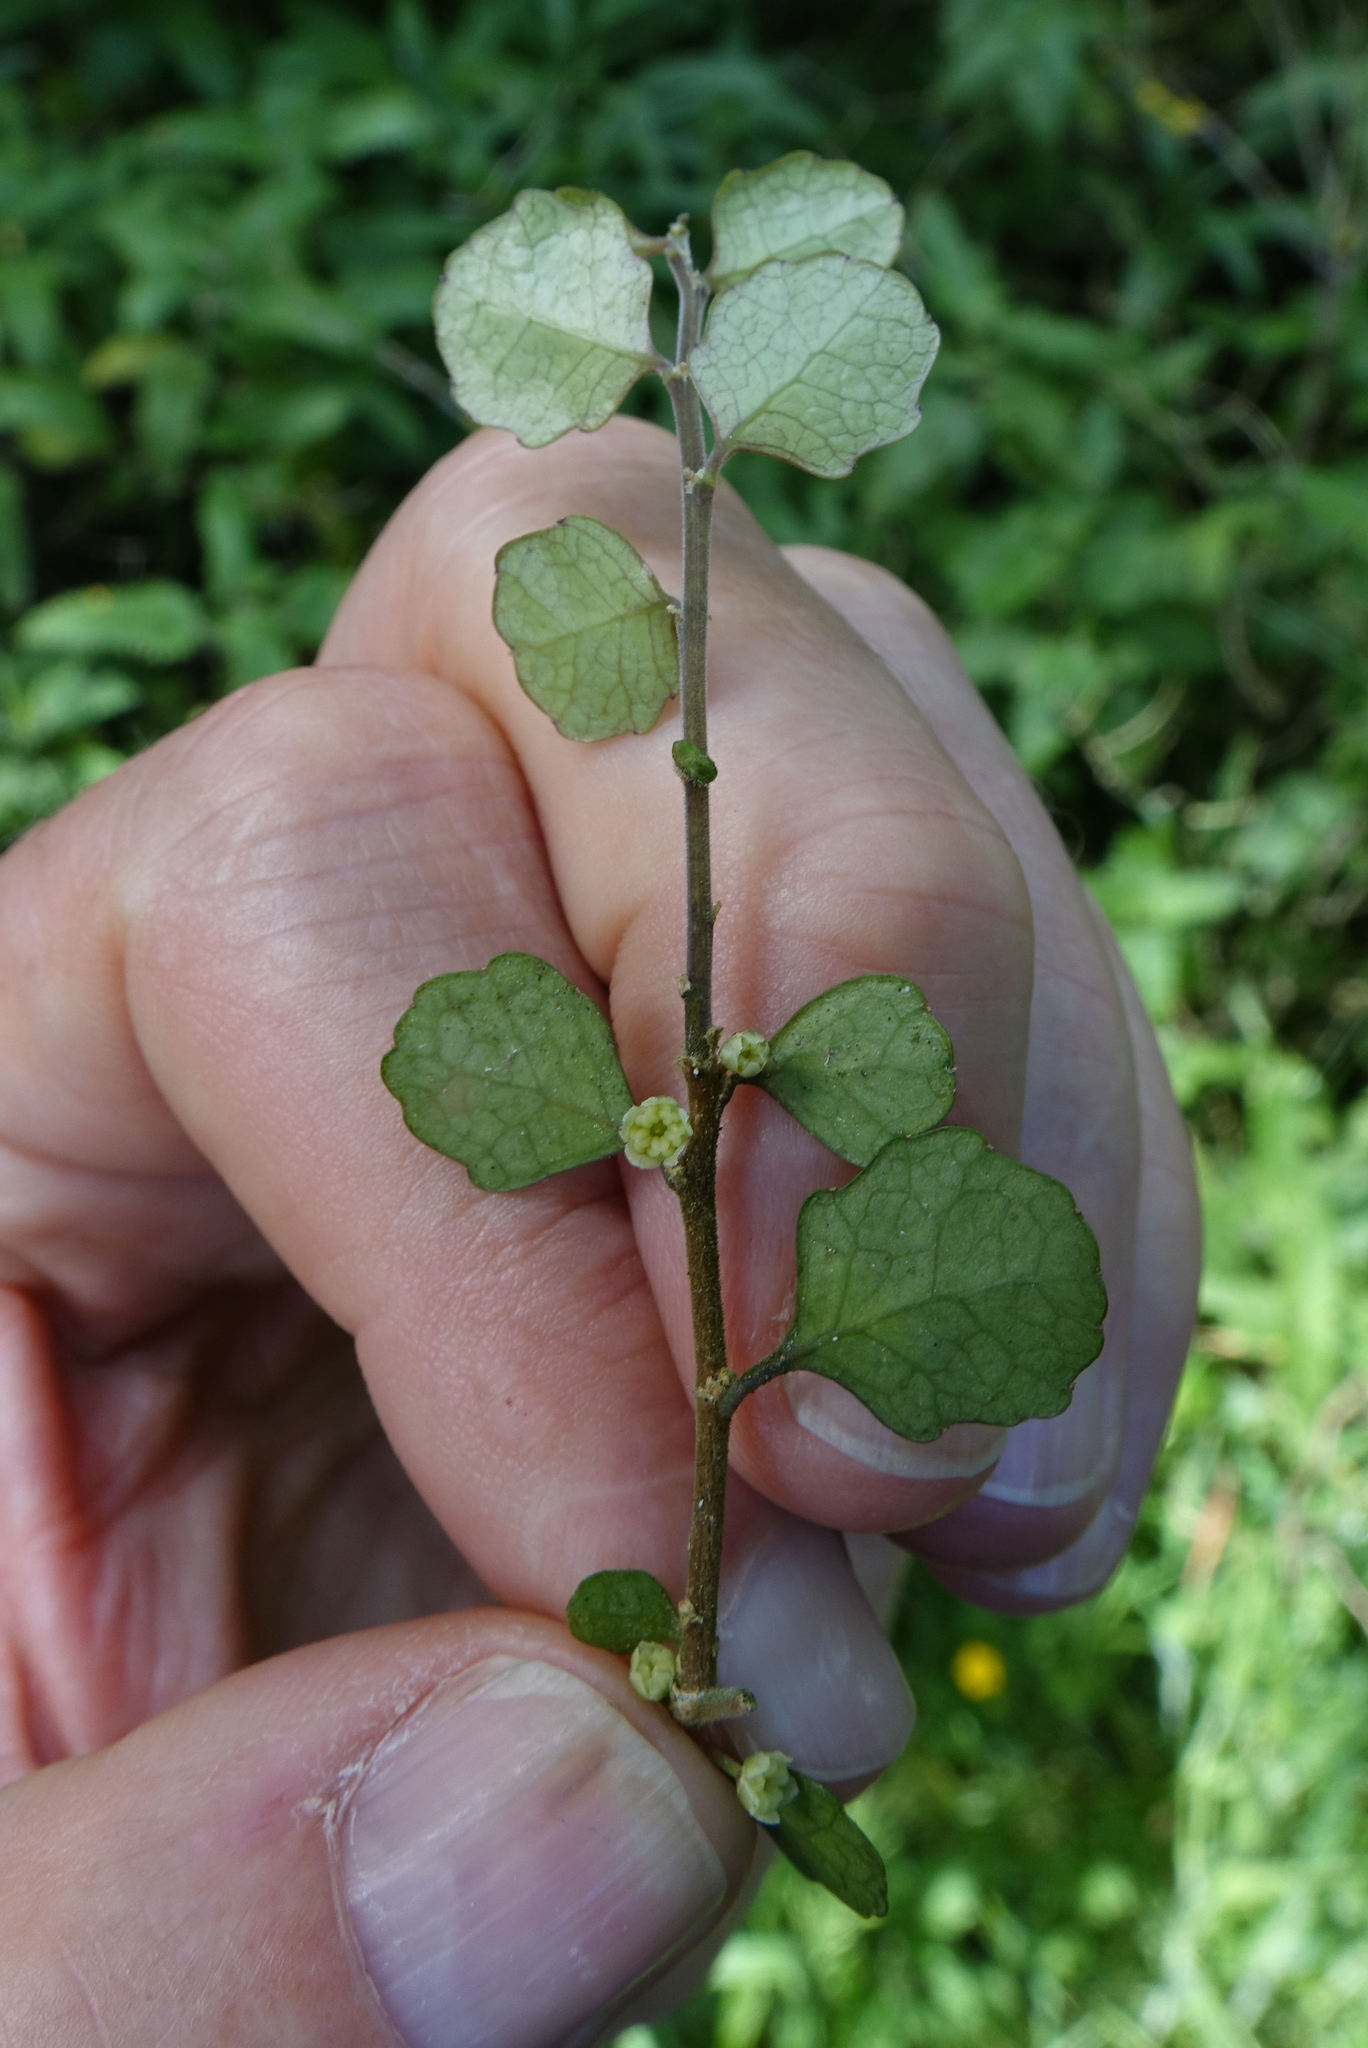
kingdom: Plantae
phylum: Tracheophyta
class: Magnoliopsida
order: Malpighiales
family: Violaceae
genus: Melicytus
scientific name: Melicytus micranthus
